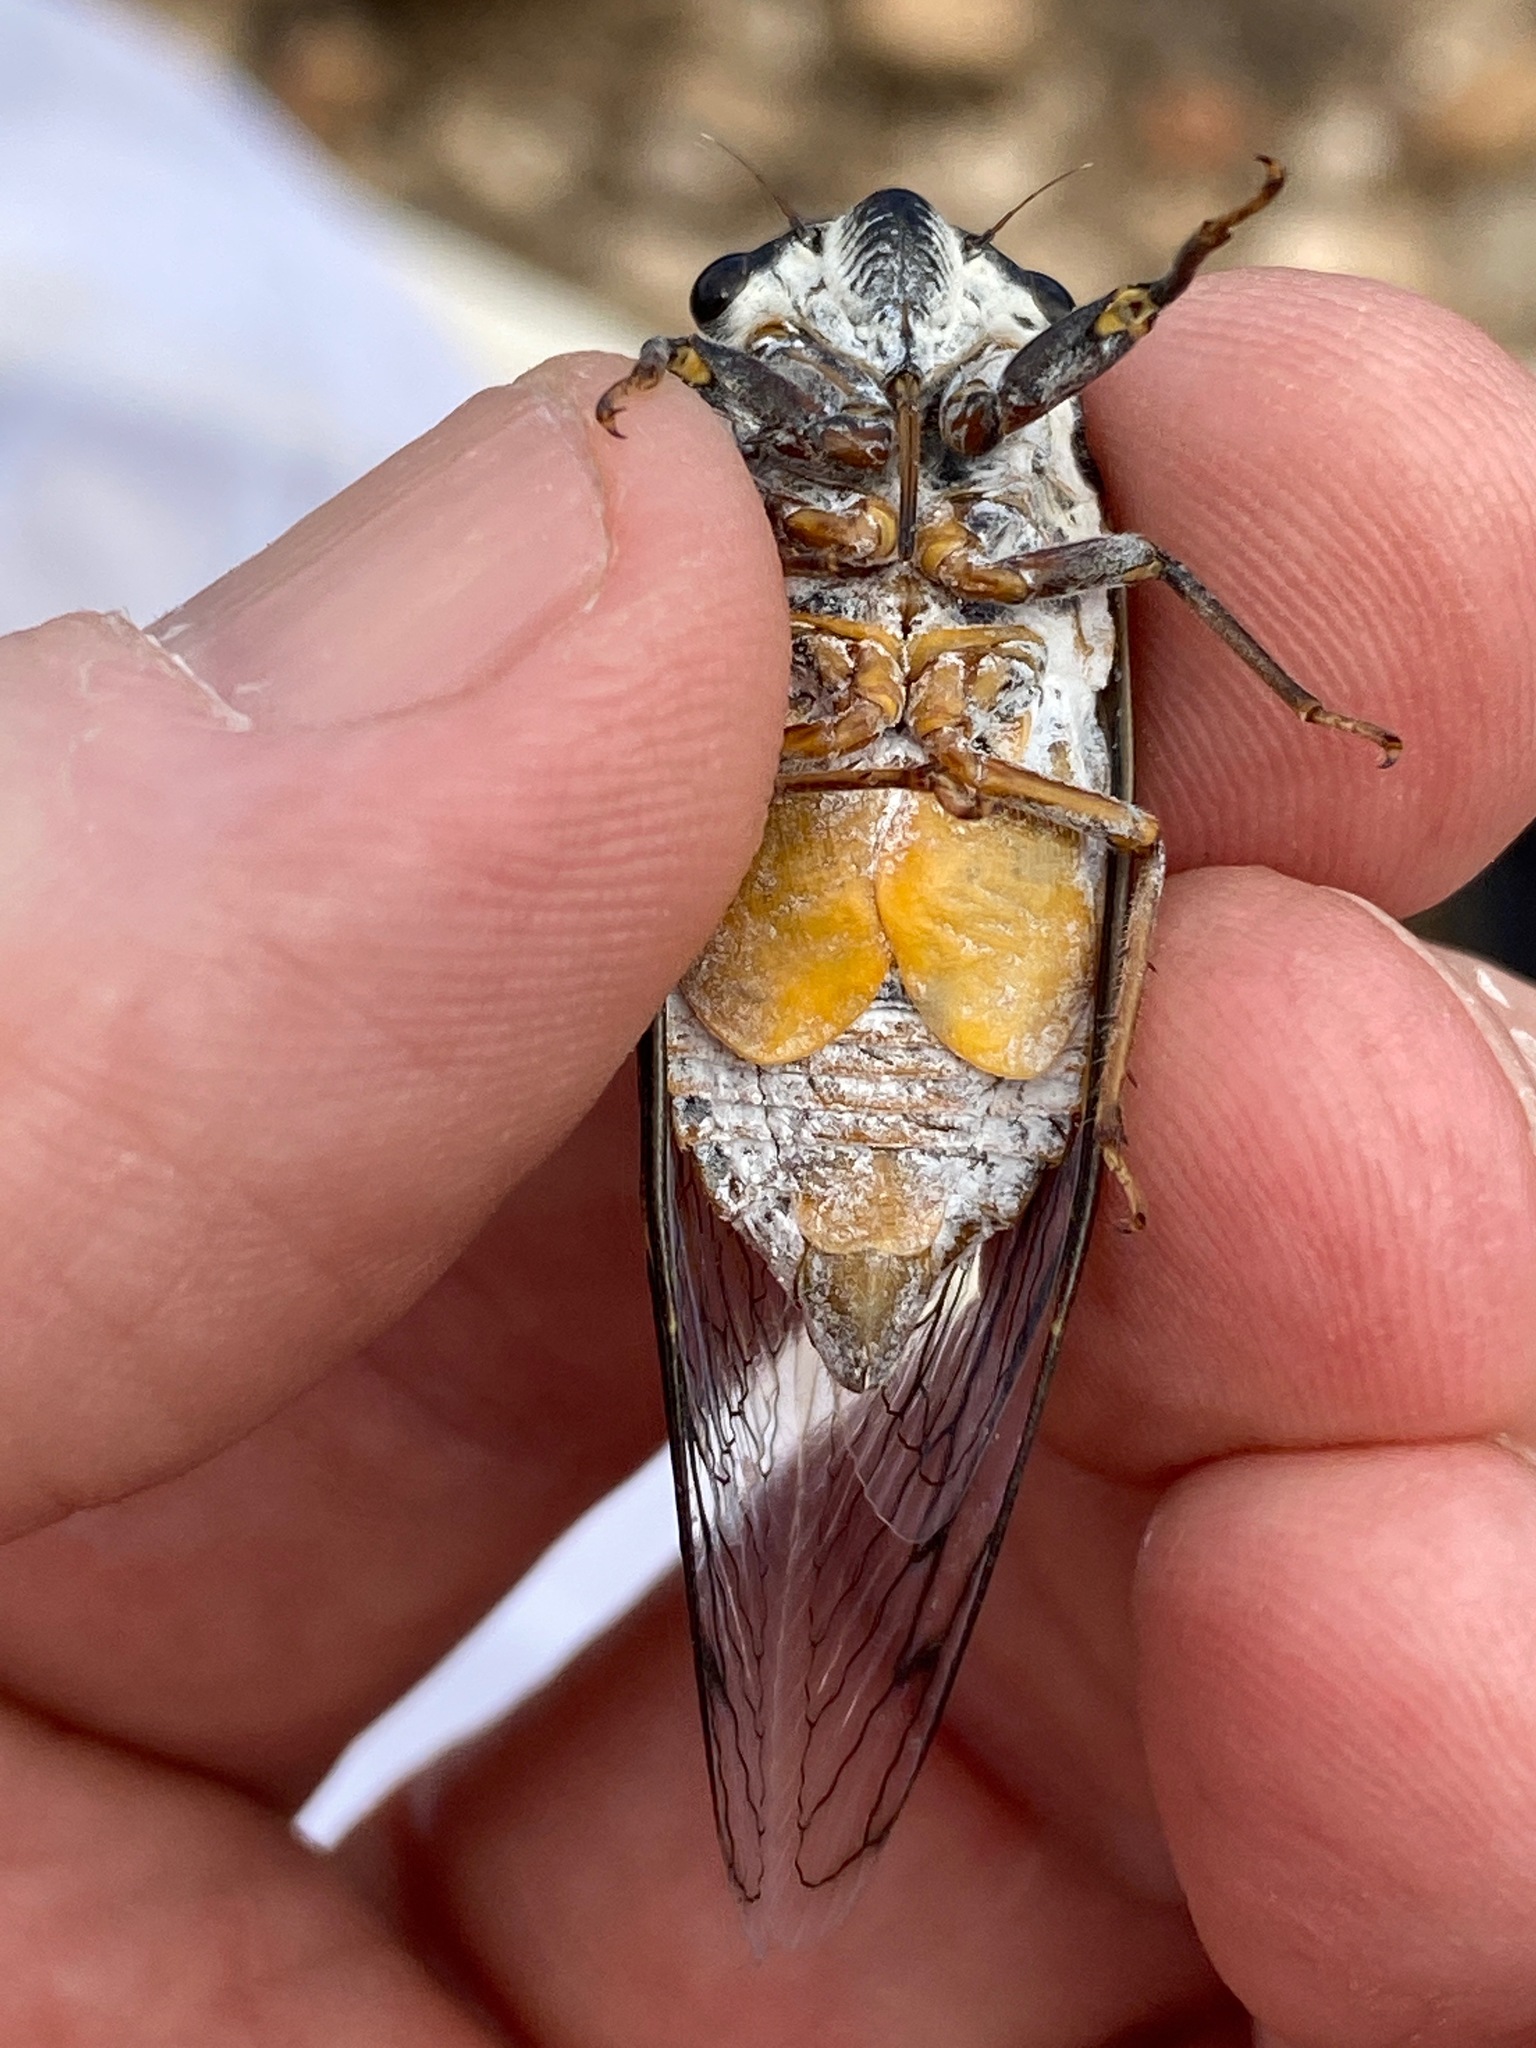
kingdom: Animalia
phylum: Arthropoda
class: Insecta
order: Hemiptera
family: Cicadidae
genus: Hadoa
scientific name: Hadoa townsendii
